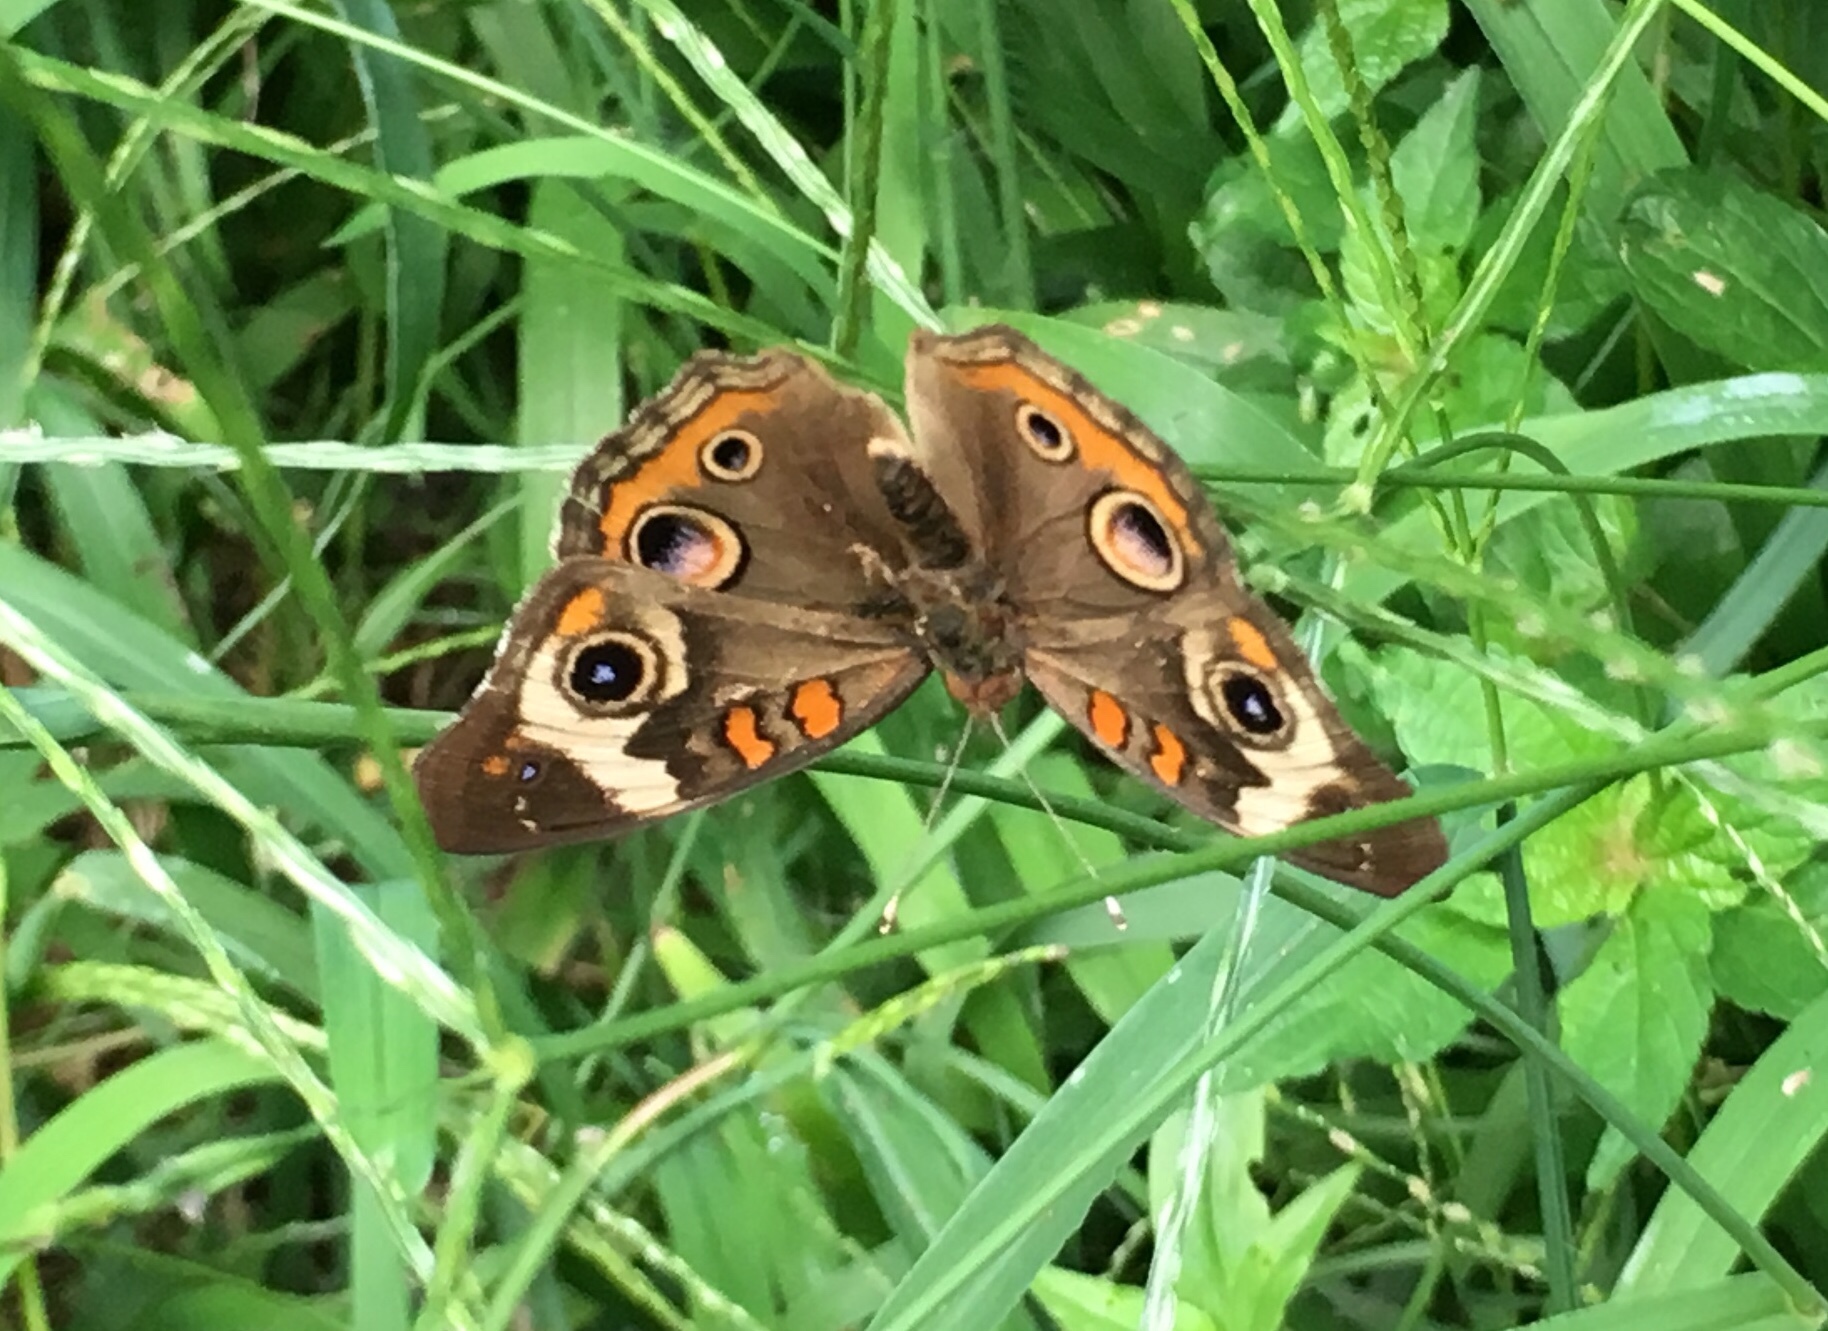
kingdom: Animalia
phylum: Arthropoda
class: Insecta
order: Lepidoptera
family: Nymphalidae
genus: Junonia
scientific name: Junonia coenia
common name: Common buckeye
